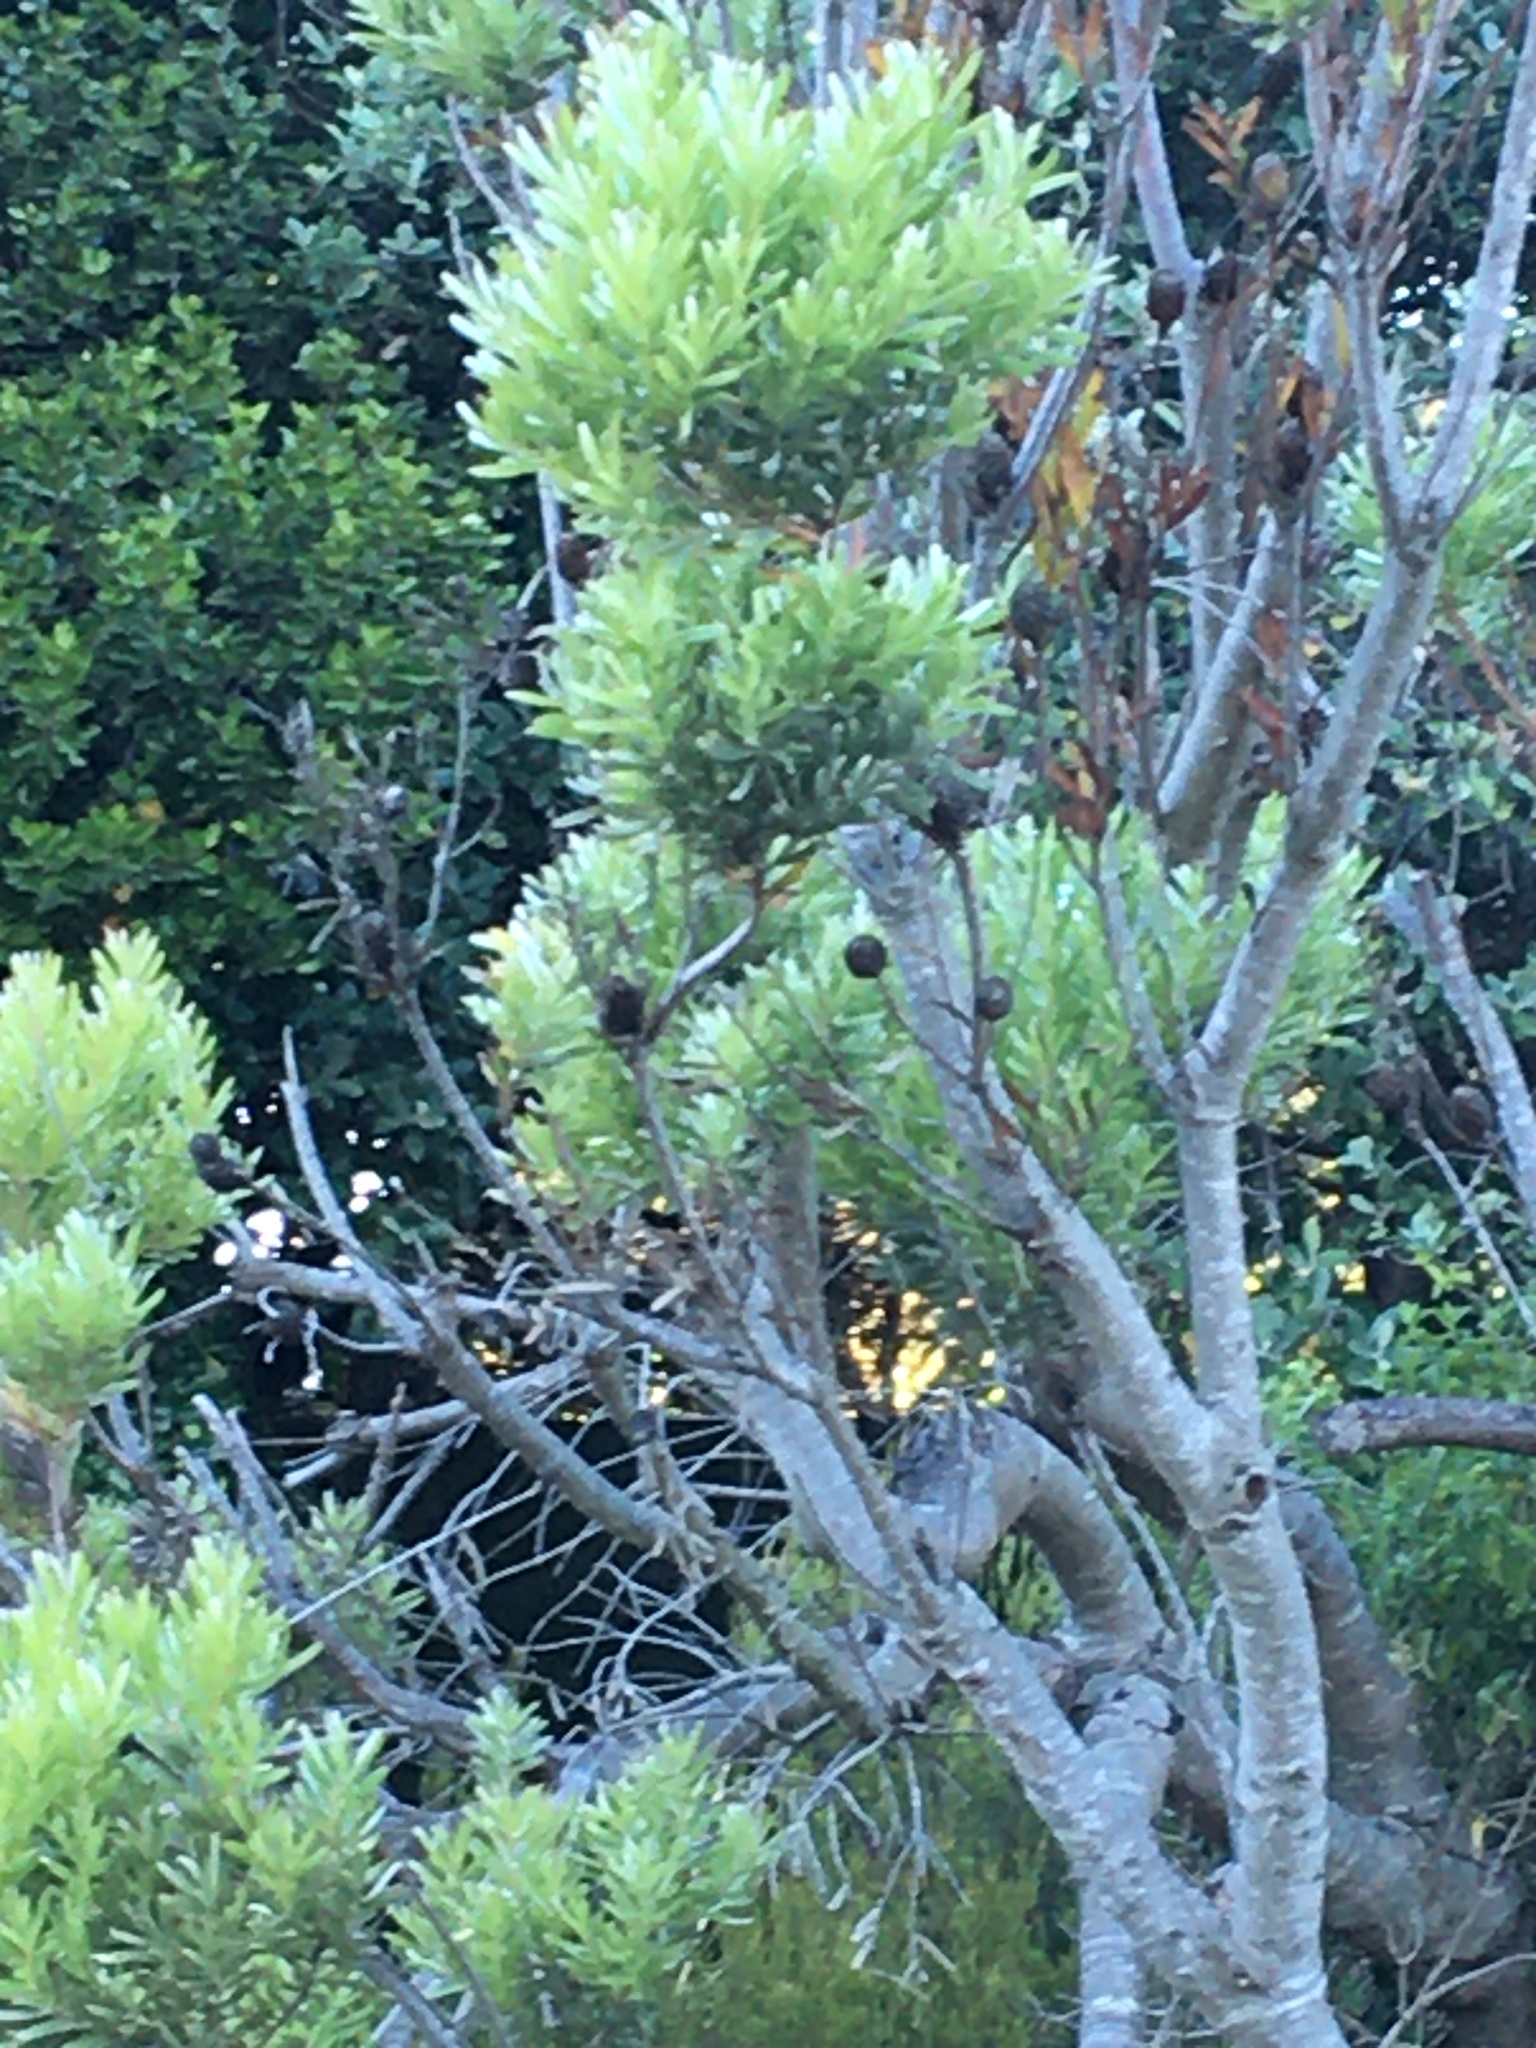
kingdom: Plantae
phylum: Tracheophyta
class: Magnoliopsida
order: Proteales
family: Proteaceae
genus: Leucadendron
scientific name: Leucadendron coniferum
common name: Dune conebush
